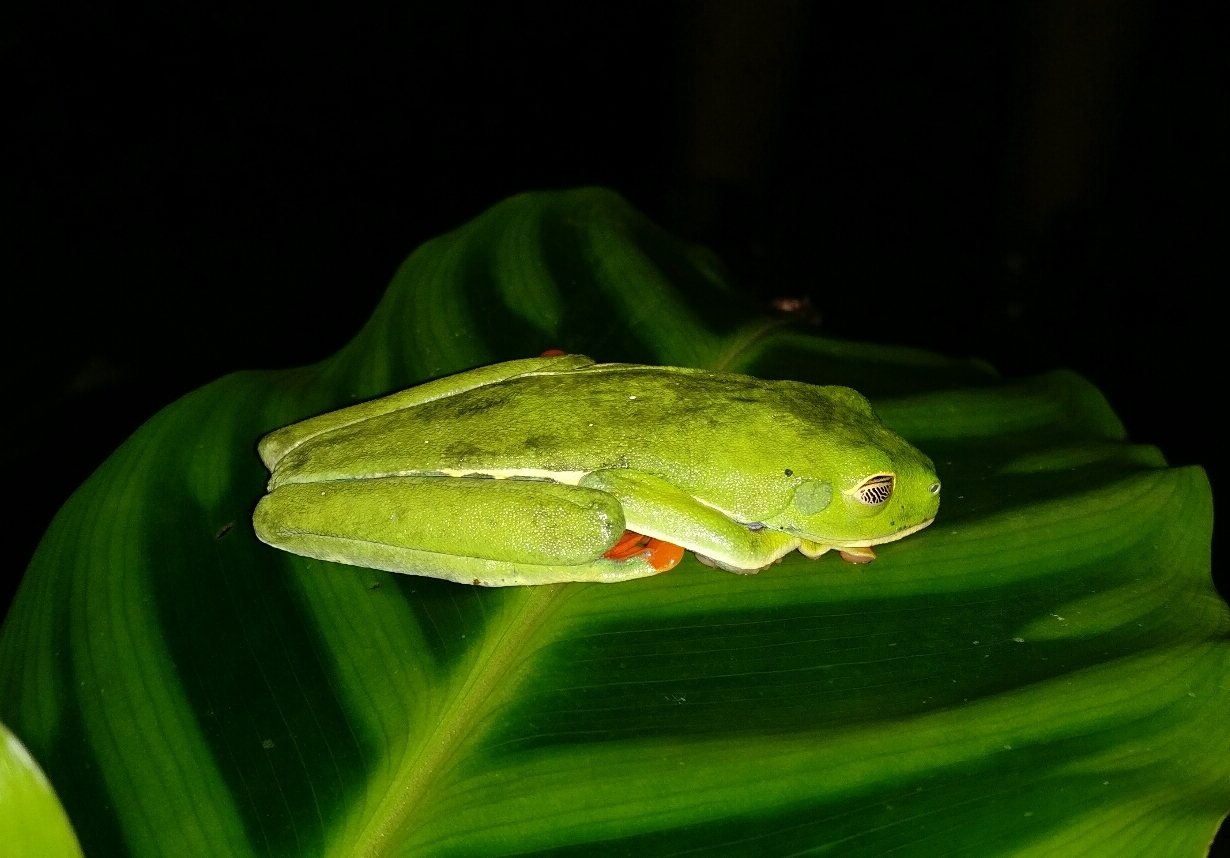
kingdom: Animalia
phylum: Chordata
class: Amphibia
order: Anura
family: Phyllomedusidae
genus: Agalychnis
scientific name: Agalychnis callidryas
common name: Red-eyed treefrog
